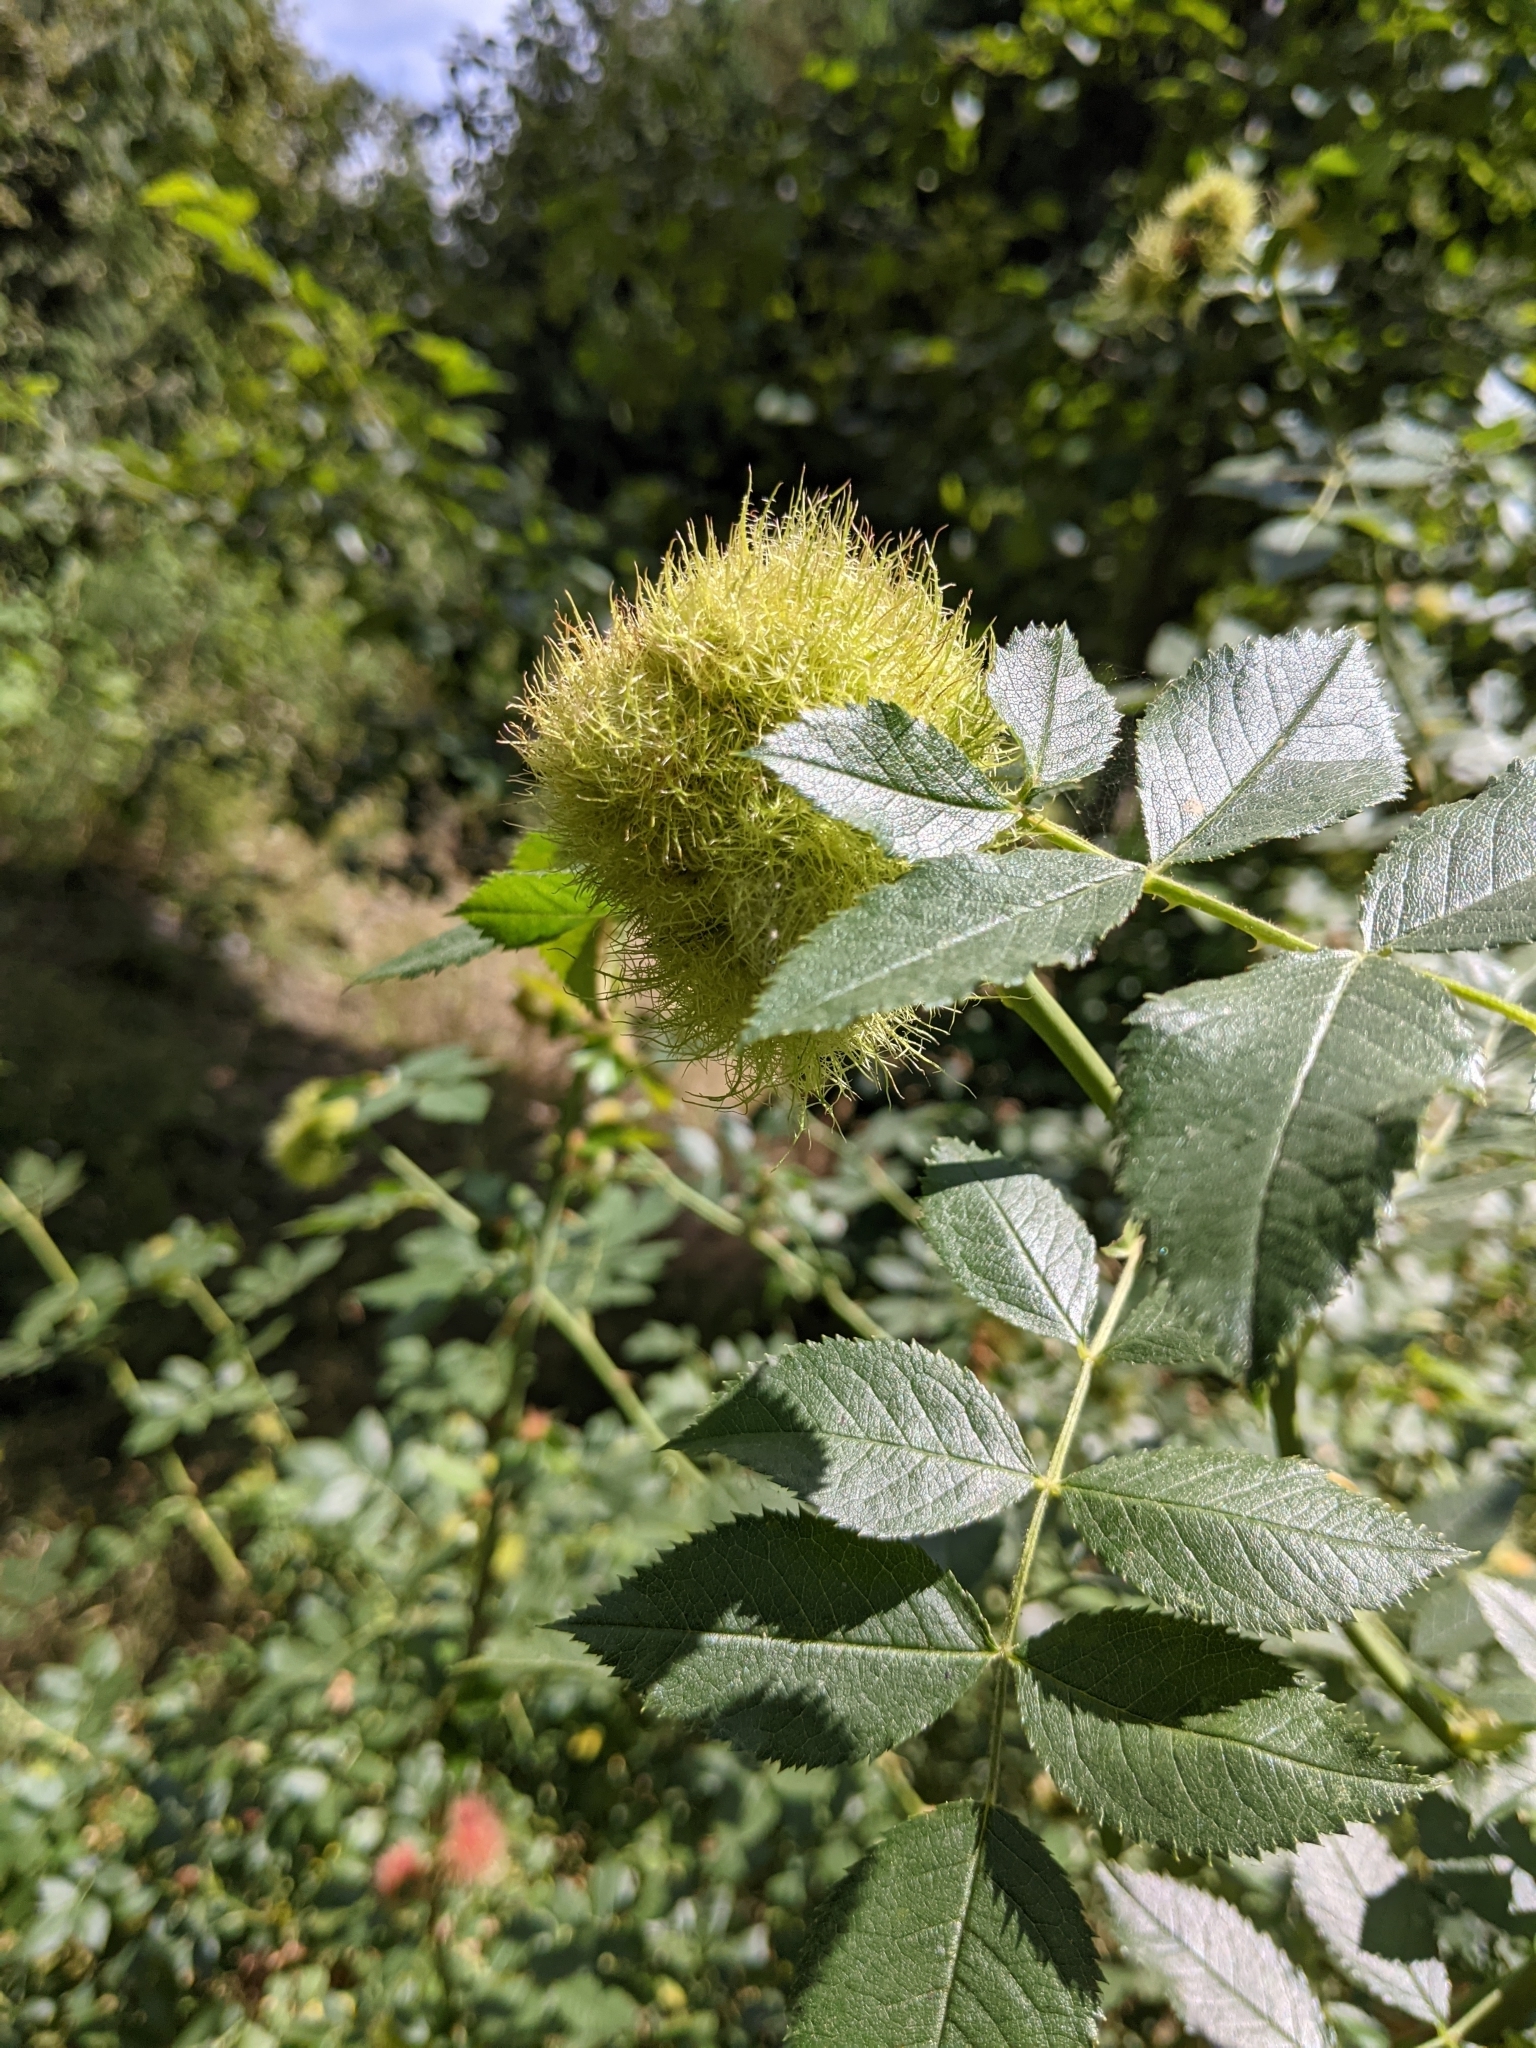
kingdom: Animalia
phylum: Arthropoda
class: Insecta
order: Hymenoptera
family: Cynipidae
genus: Diplolepis
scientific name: Diplolepis rosae
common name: Bedeguar gall
